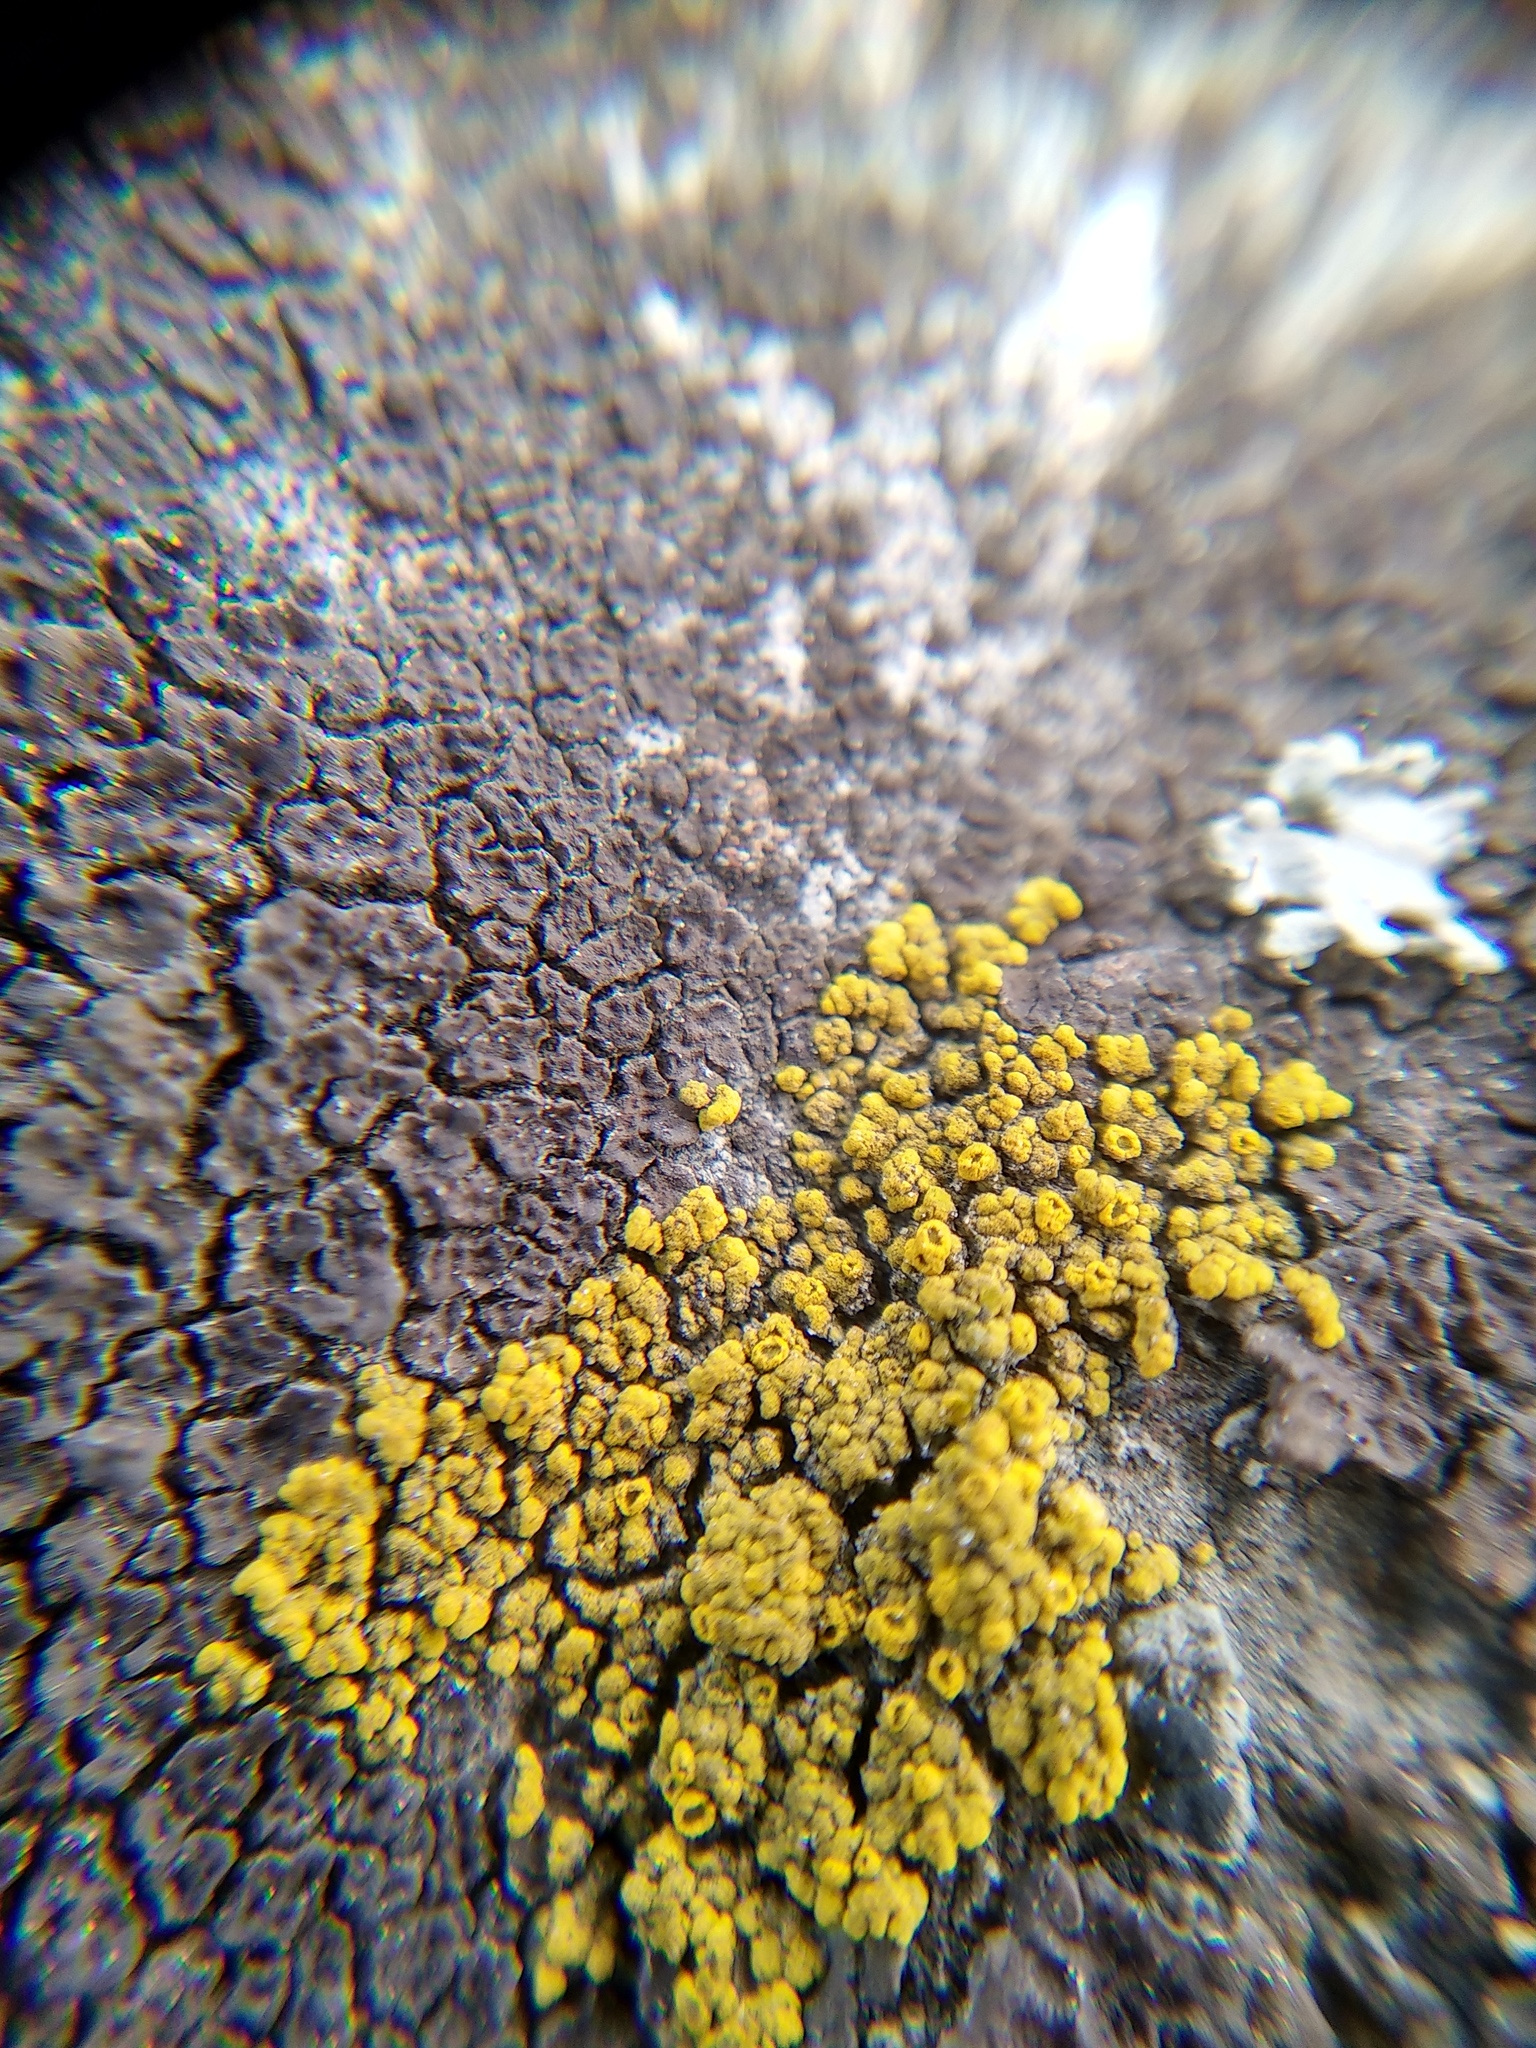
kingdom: Fungi
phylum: Ascomycota
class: Candelariomycetes
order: Candelariales
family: Candelariaceae
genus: Candelariella
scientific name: Candelariella vitellina
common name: Common goldspeck
